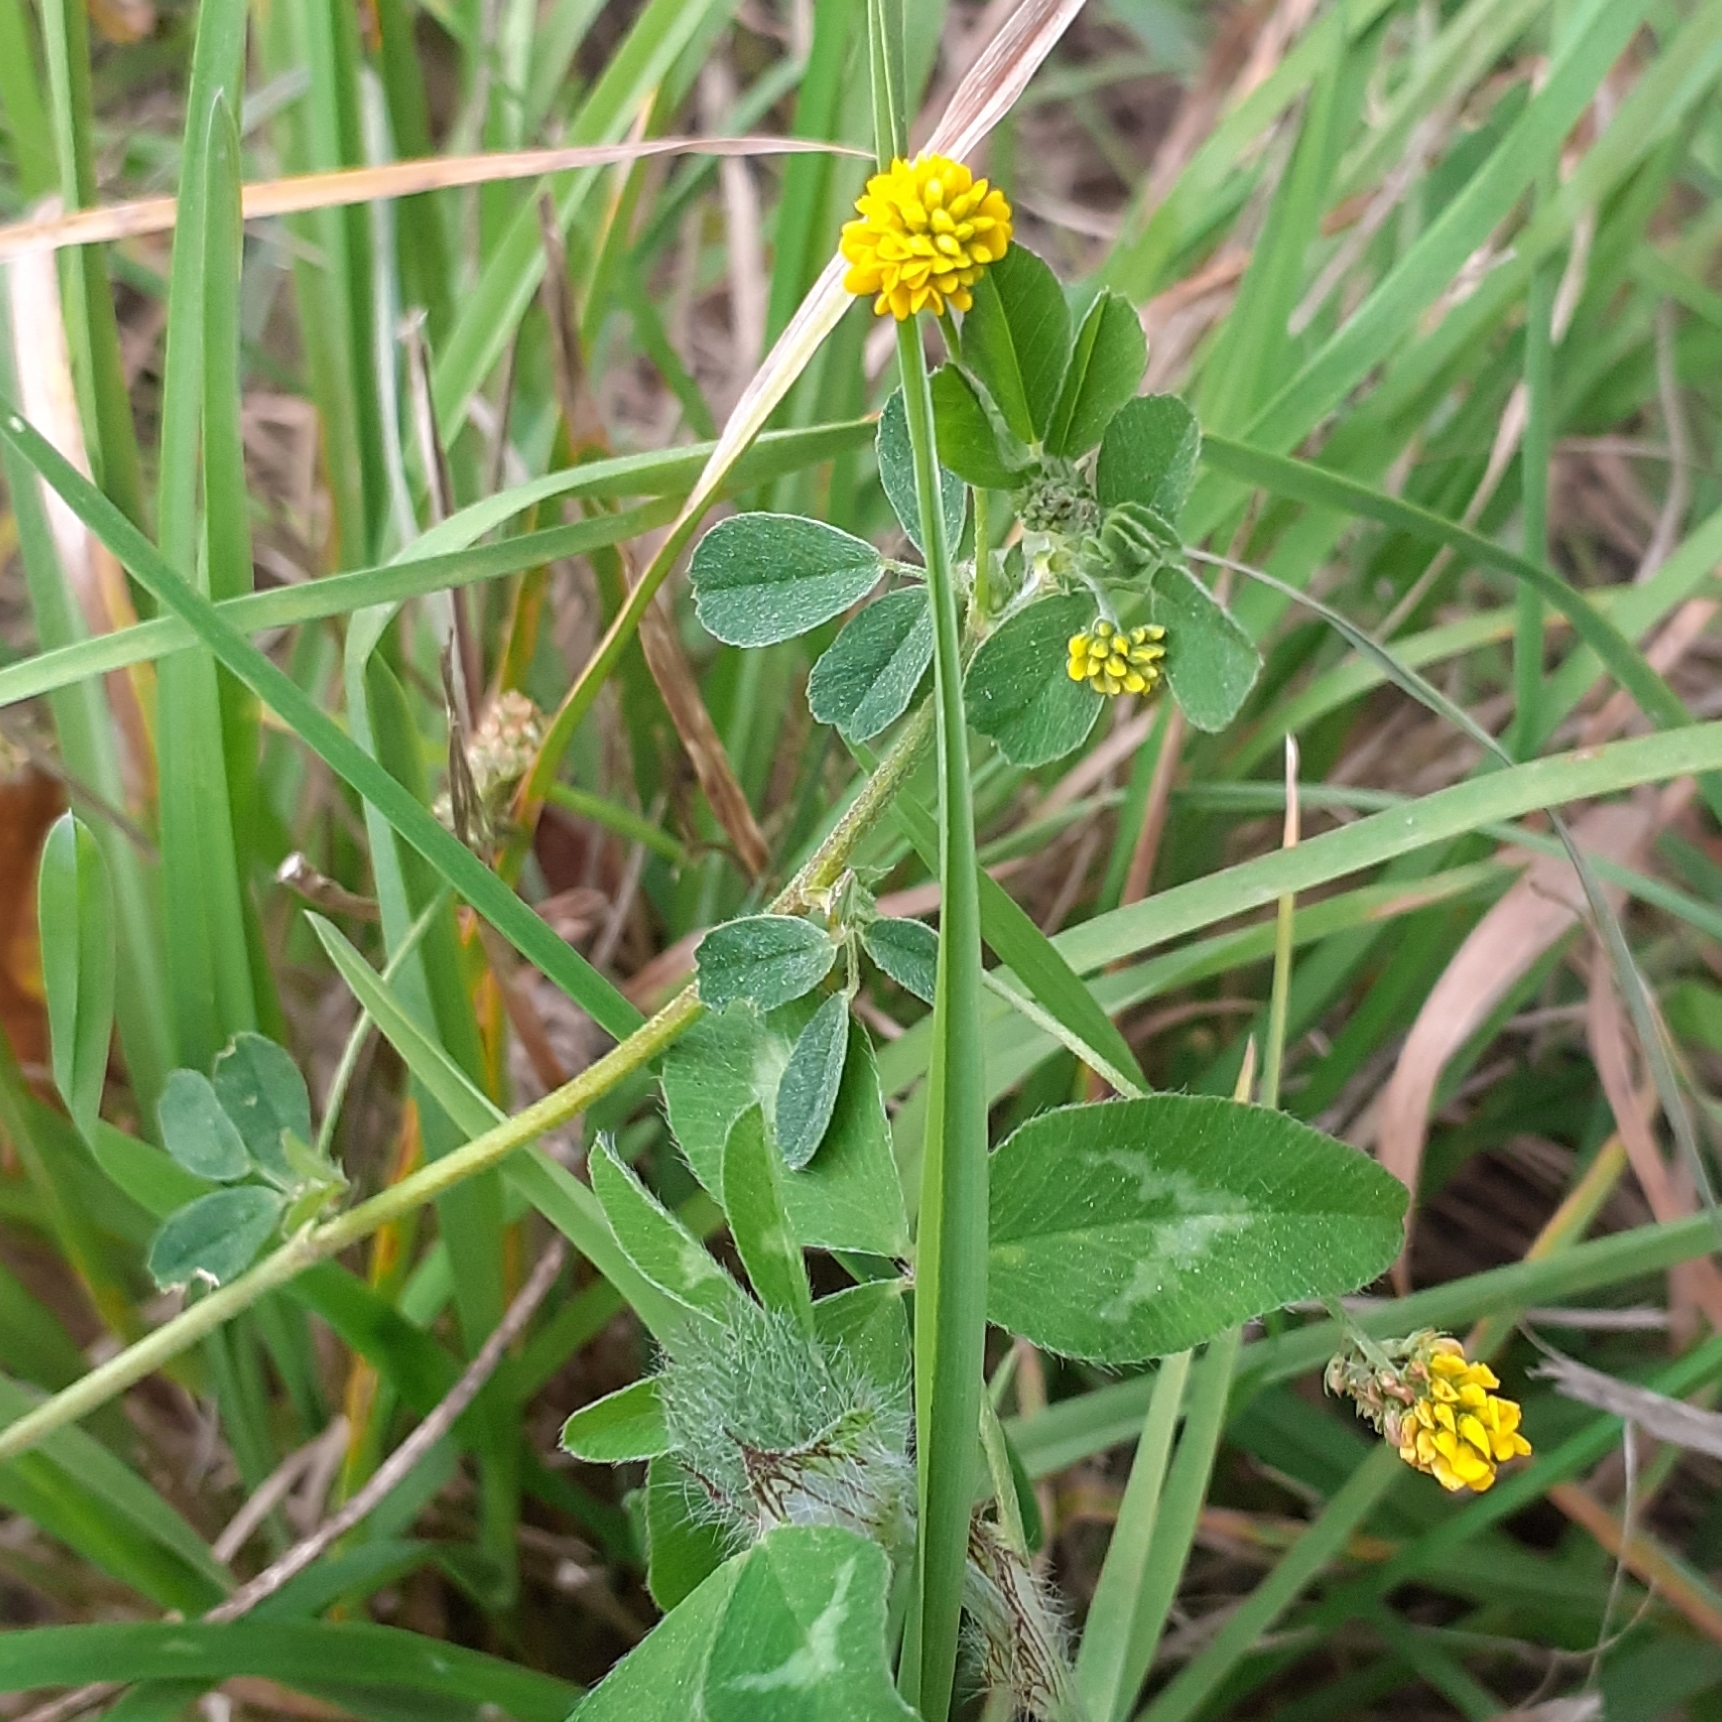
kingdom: Plantae
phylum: Tracheophyta
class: Magnoliopsida
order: Fabales
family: Fabaceae
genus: Medicago
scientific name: Medicago lupulina
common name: Black medick
